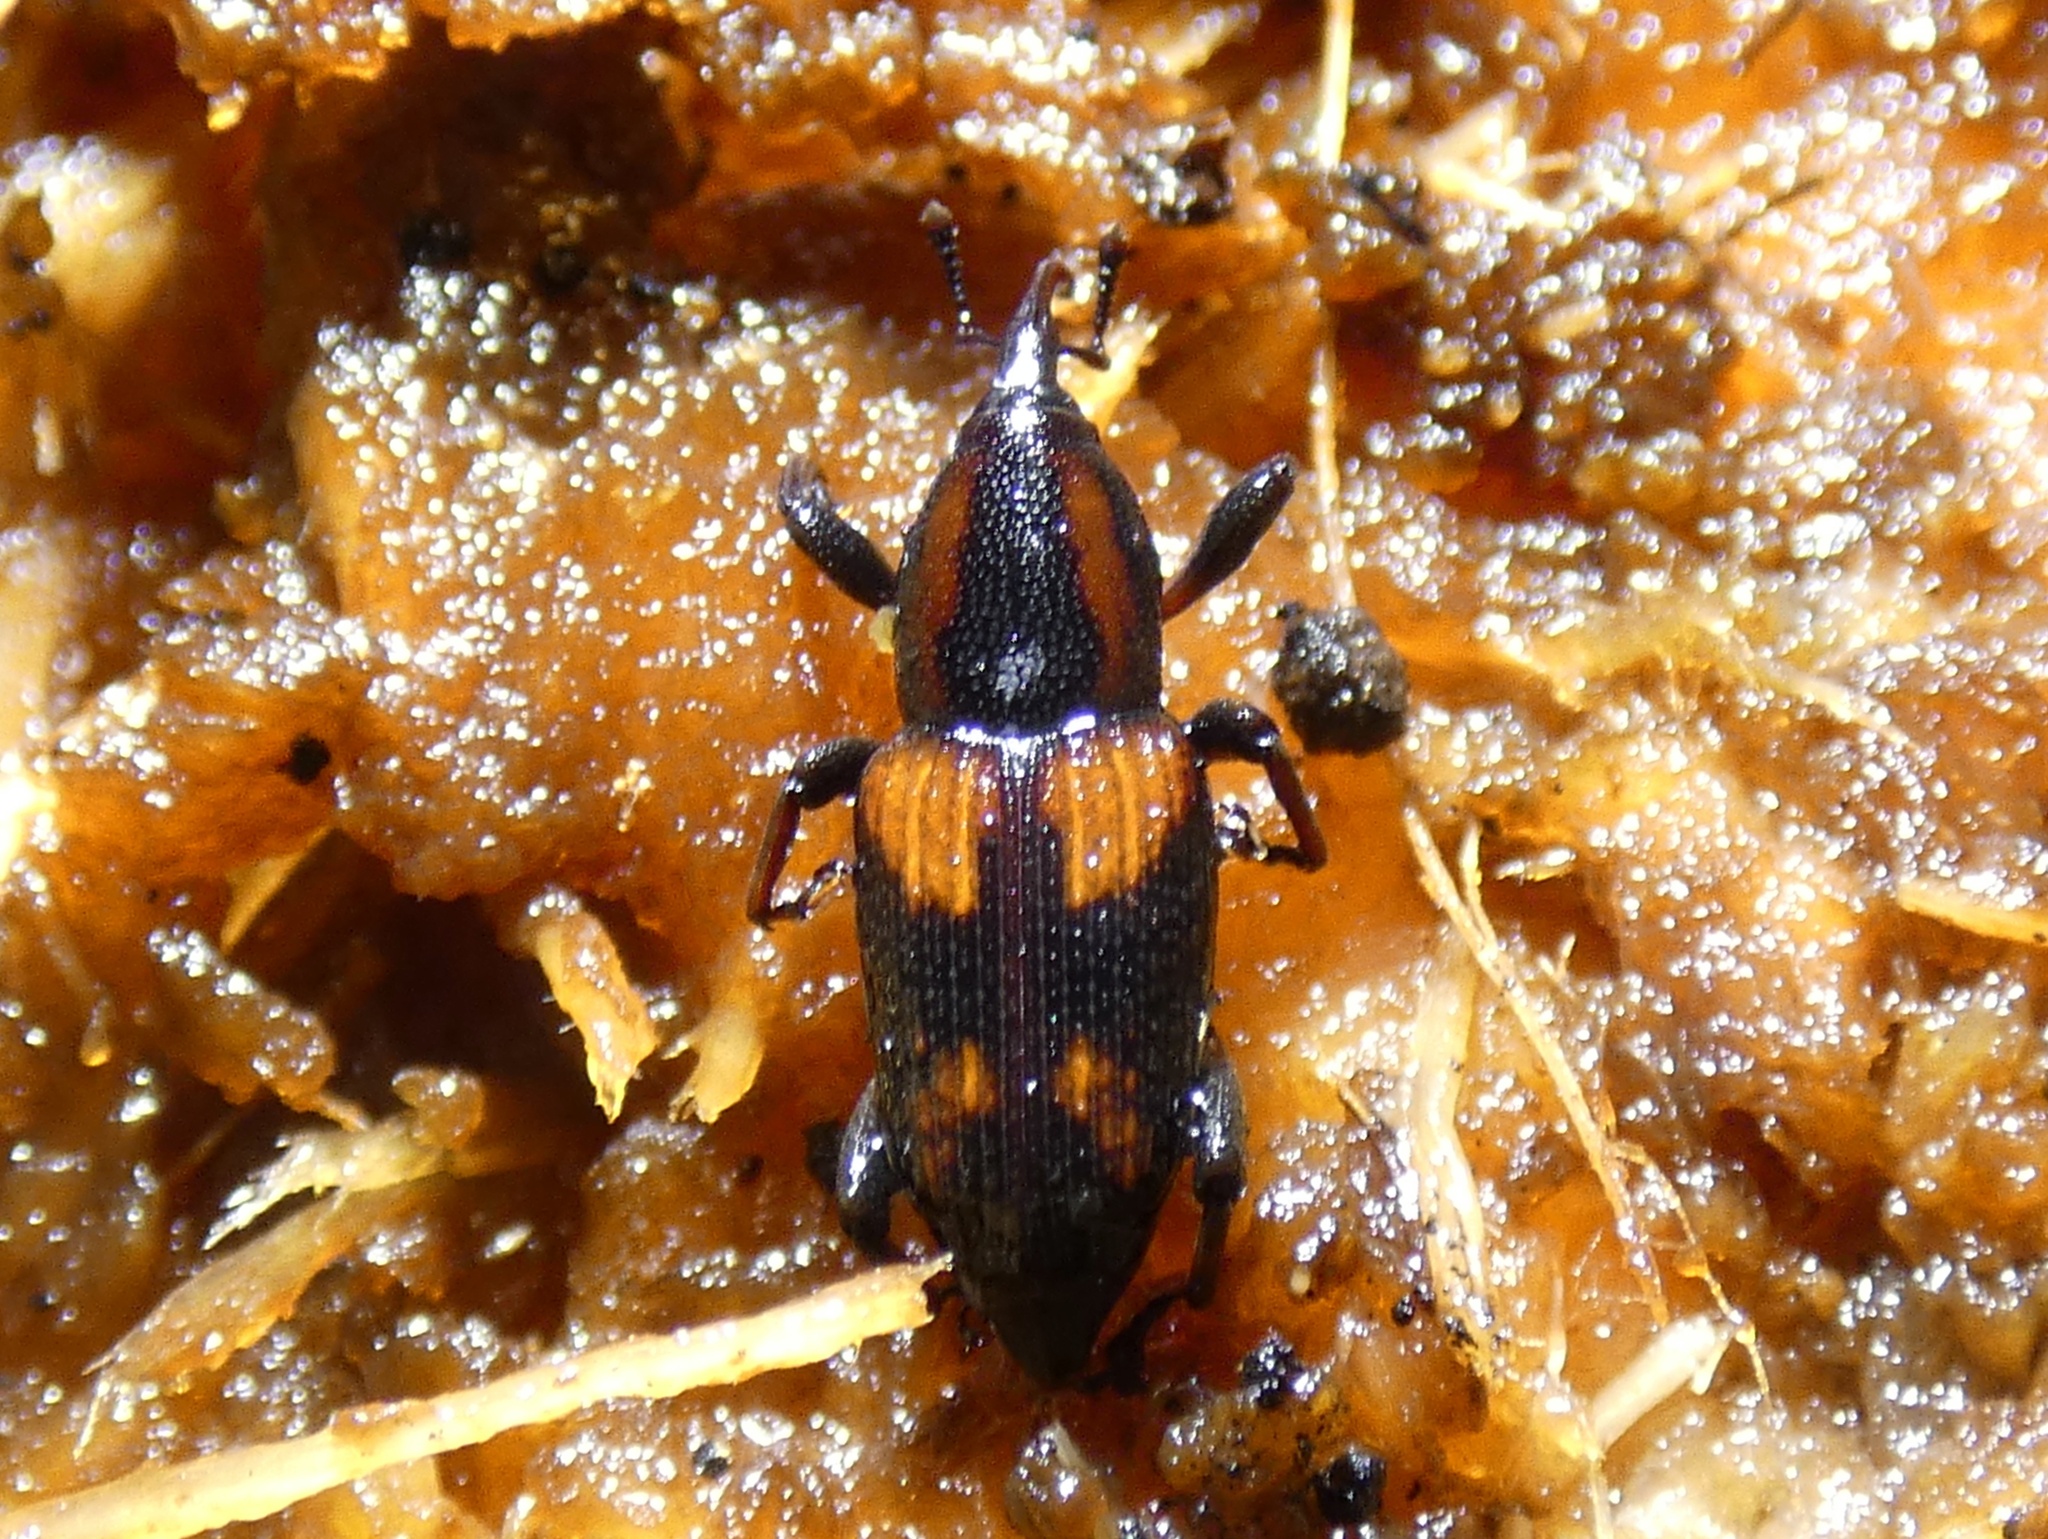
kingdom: Animalia
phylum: Arthropoda
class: Insecta
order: Coleoptera
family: Dryophthoridae
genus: Rhabdoscelus
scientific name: Rhabdoscelus obscurus
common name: Cane weevil borer
